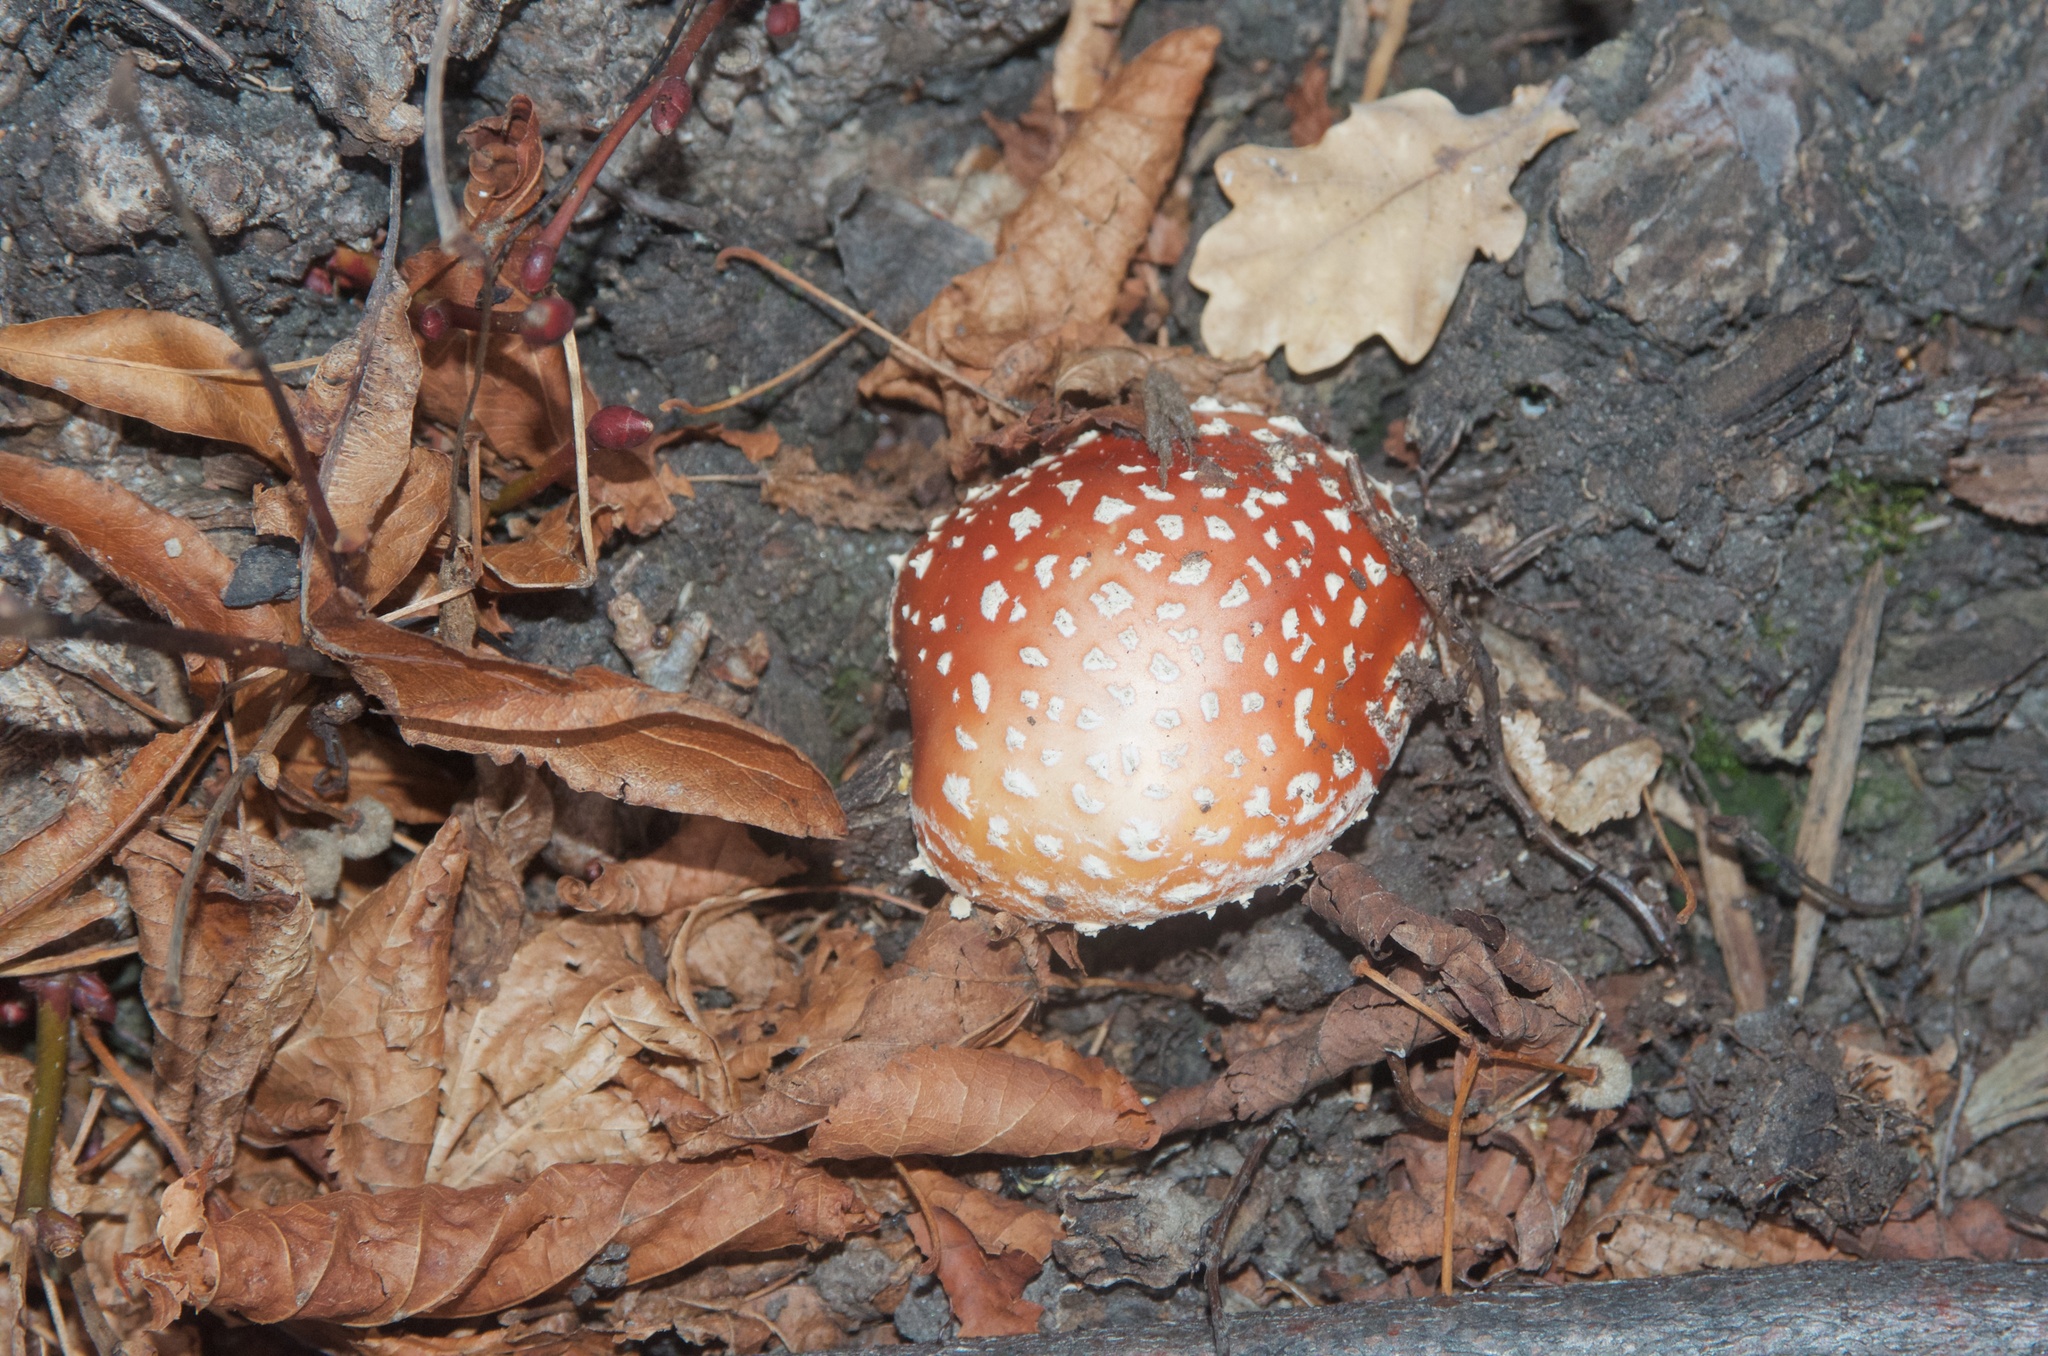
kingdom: Fungi
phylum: Basidiomycota
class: Agaricomycetes
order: Agaricales
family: Amanitaceae
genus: Amanita
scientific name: Amanita muscaria
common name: Fly agaric
